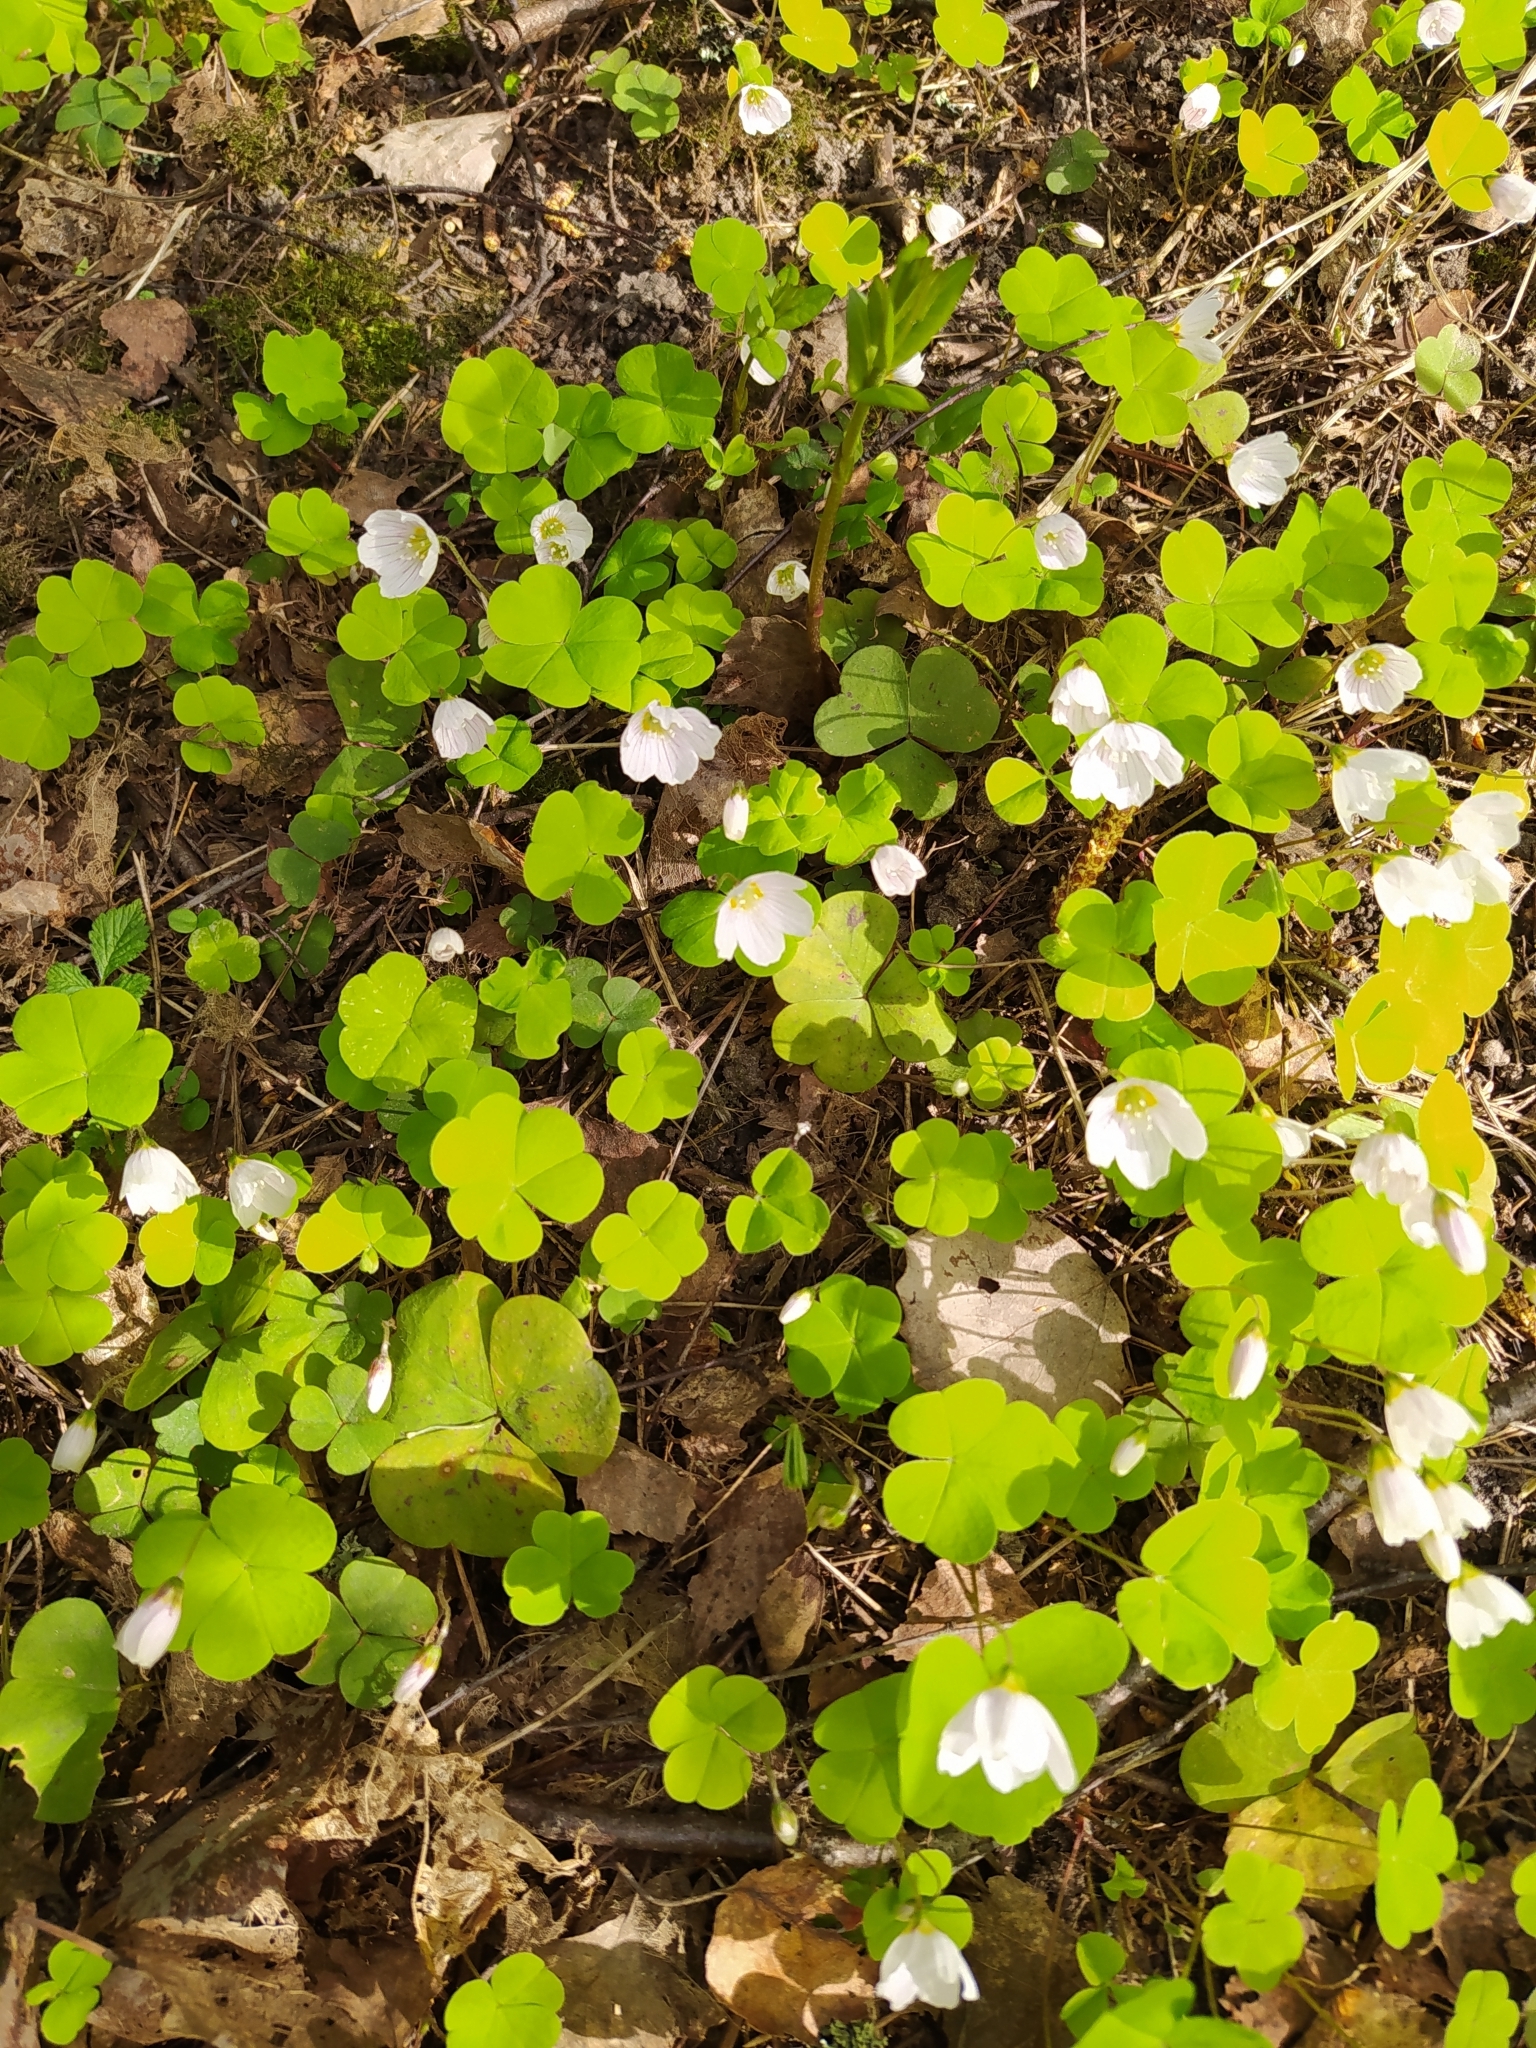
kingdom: Plantae
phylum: Tracheophyta
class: Magnoliopsida
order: Oxalidales
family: Oxalidaceae
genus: Oxalis
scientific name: Oxalis acetosella
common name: Wood-sorrel
